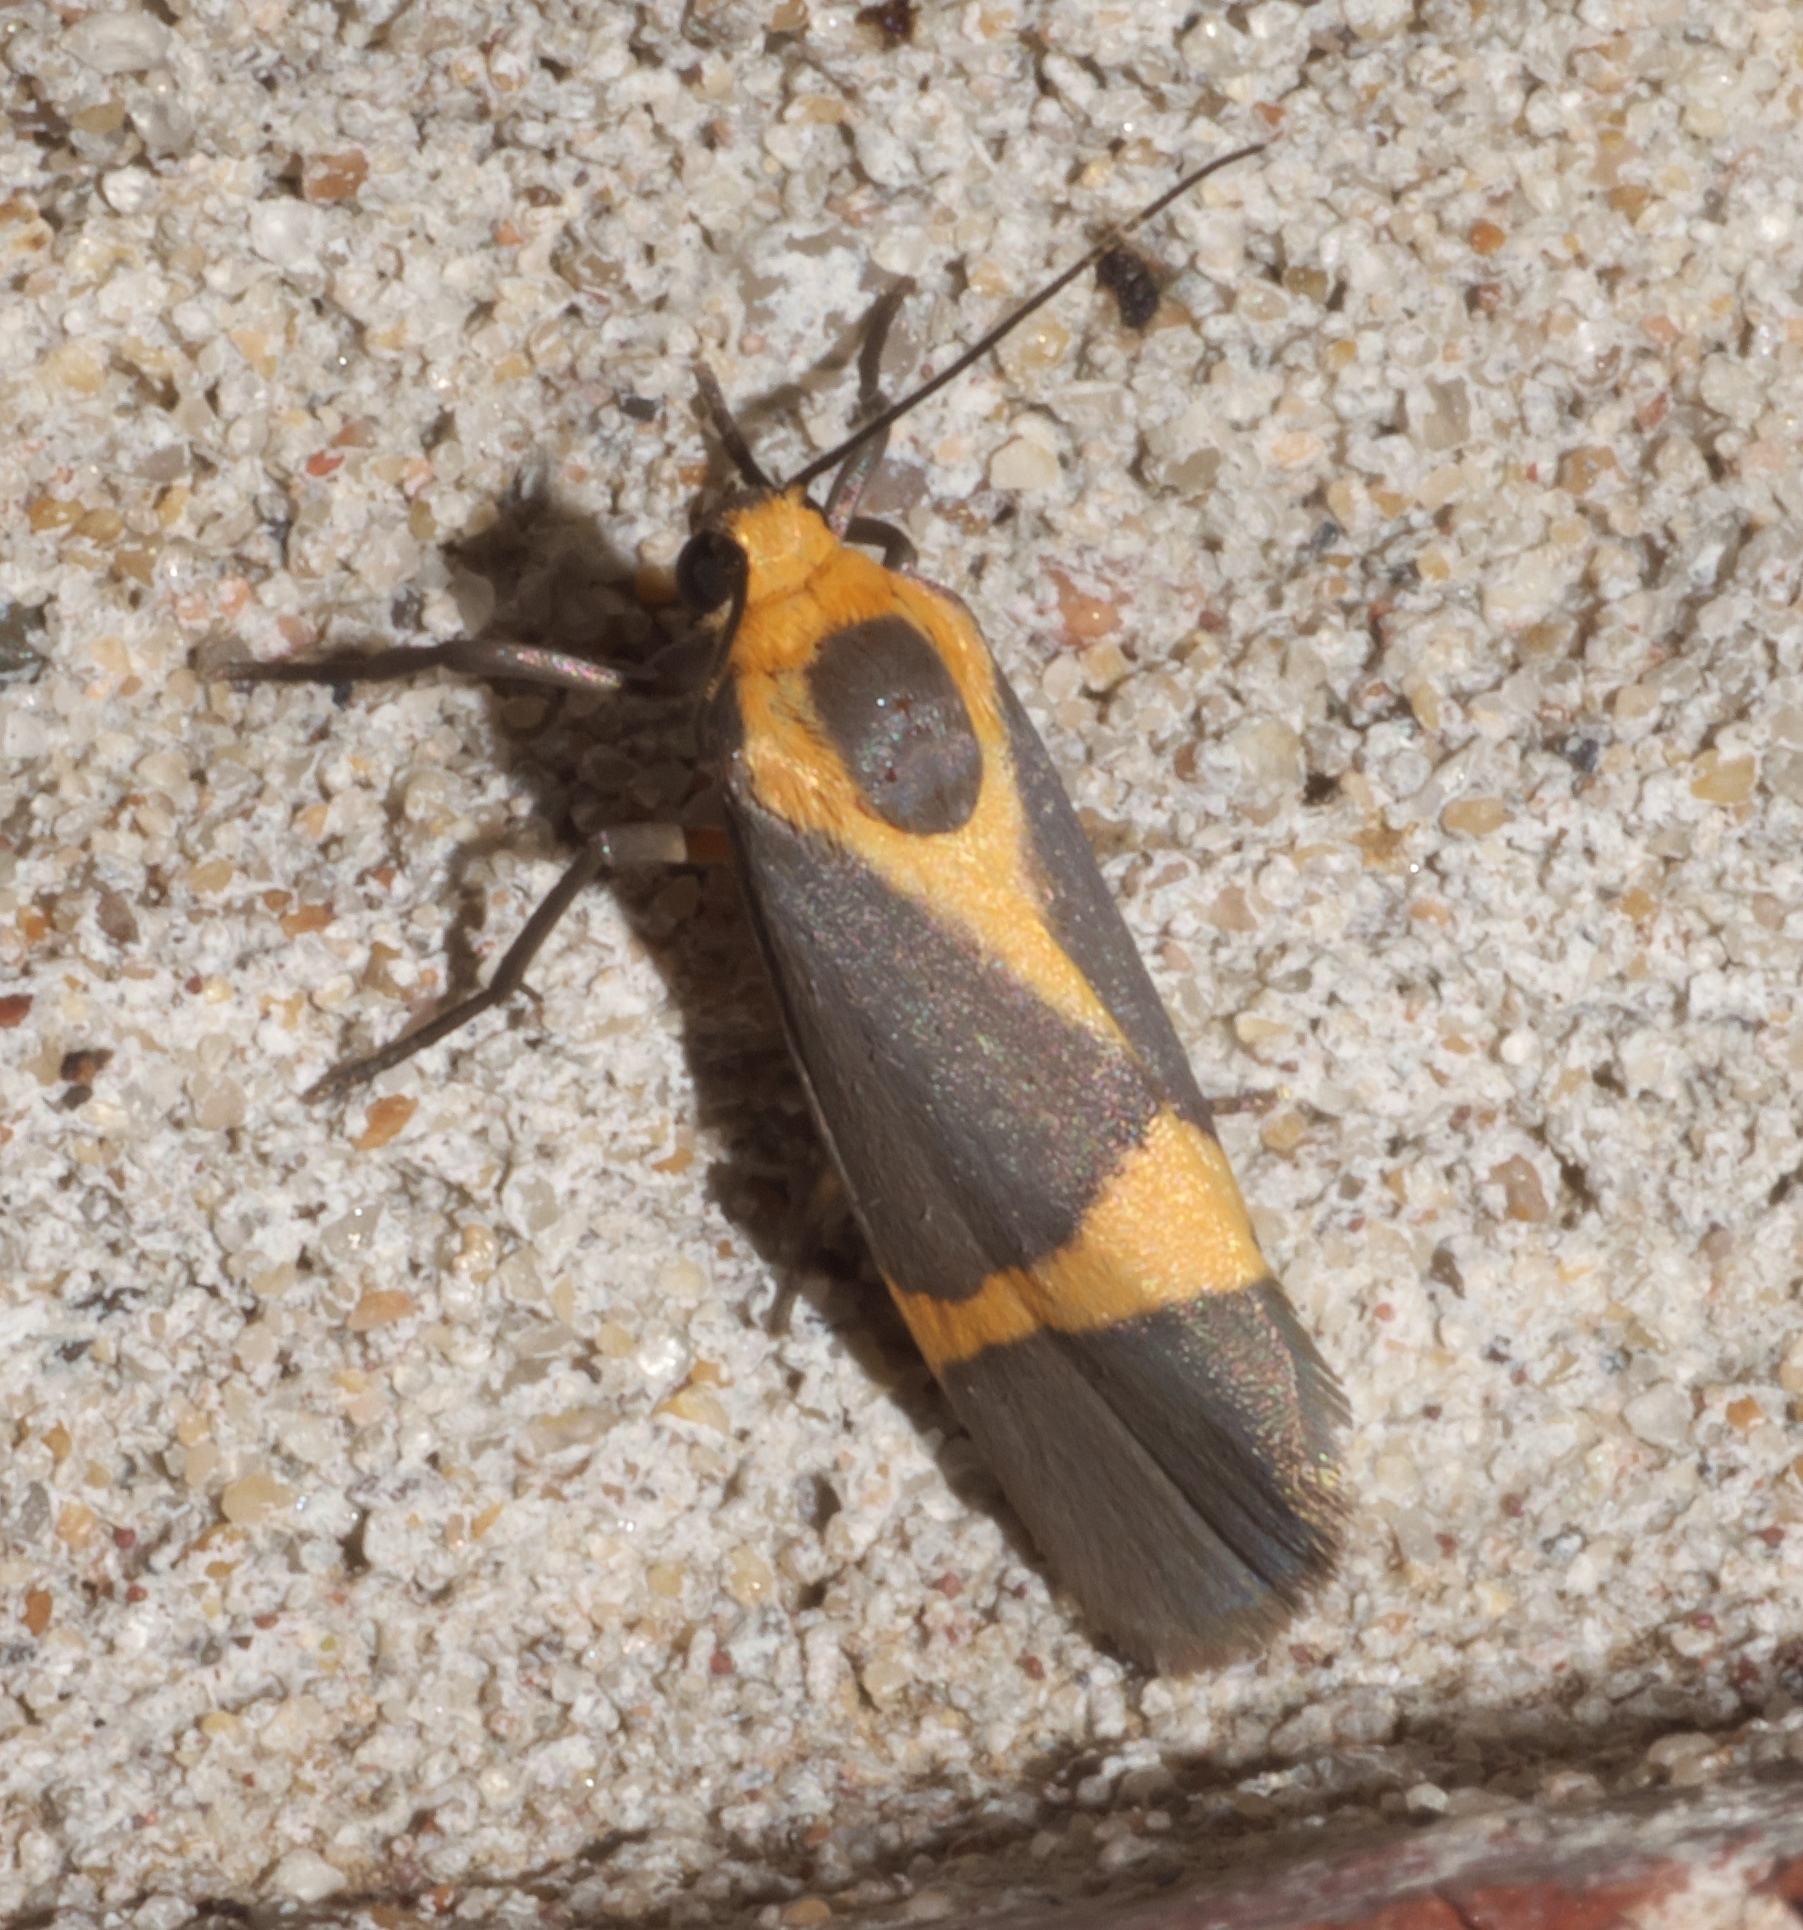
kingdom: Animalia
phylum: Arthropoda
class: Insecta
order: Lepidoptera
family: Erebidae
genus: Cisthene
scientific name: Cisthene tenuifascia
